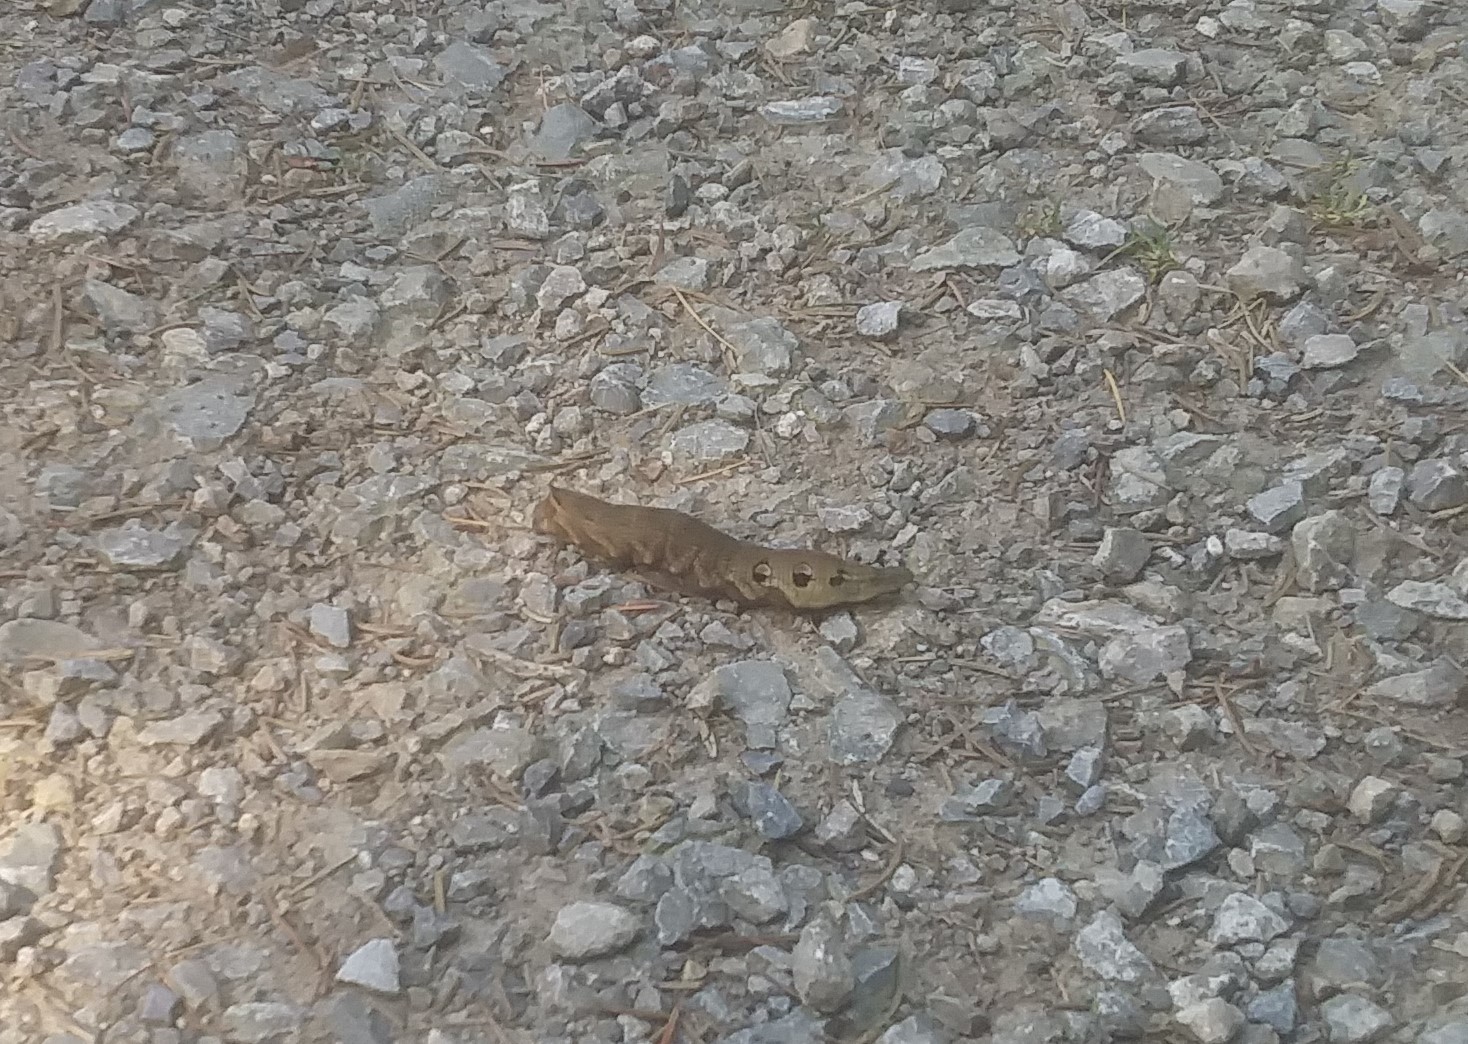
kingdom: Animalia
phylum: Arthropoda
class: Insecta
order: Lepidoptera
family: Sphingidae
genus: Deilephila
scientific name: Deilephila elpenor
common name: Elephant hawk-moth
